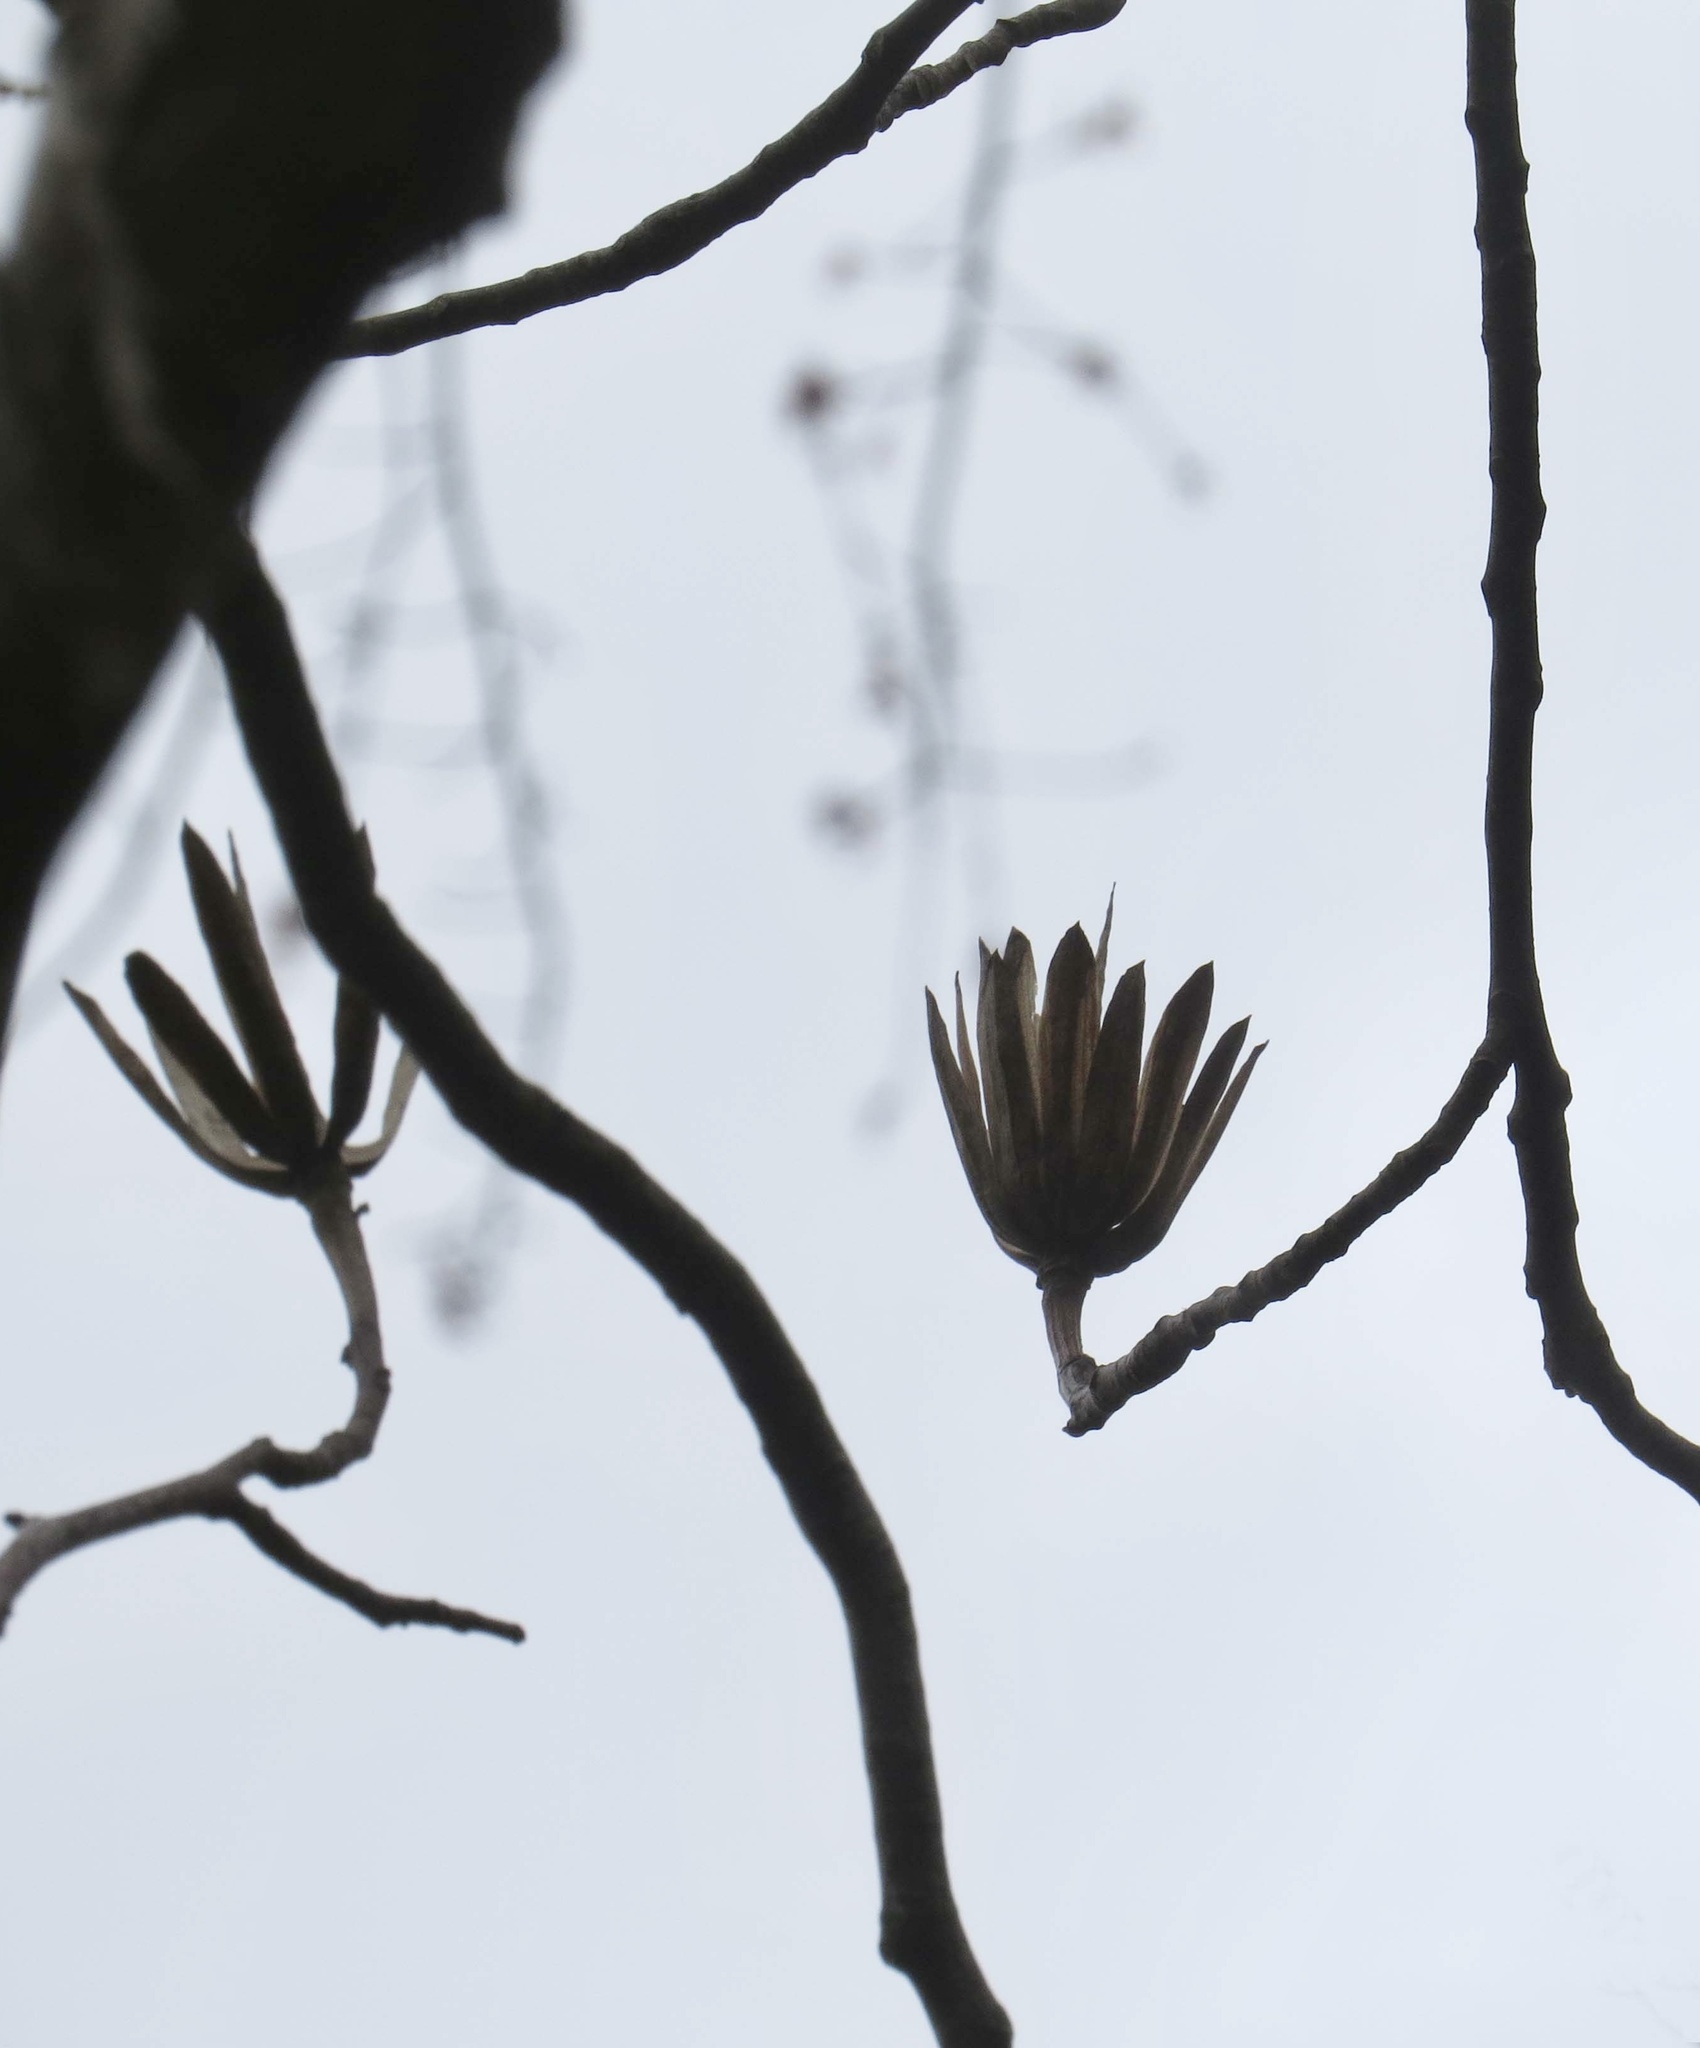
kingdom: Plantae
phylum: Tracheophyta
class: Magnoliopsida
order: Magnoliales
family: Magnoliaceae
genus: Liriodendron
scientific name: Liriodendron tulipifera
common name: Tulip tree
